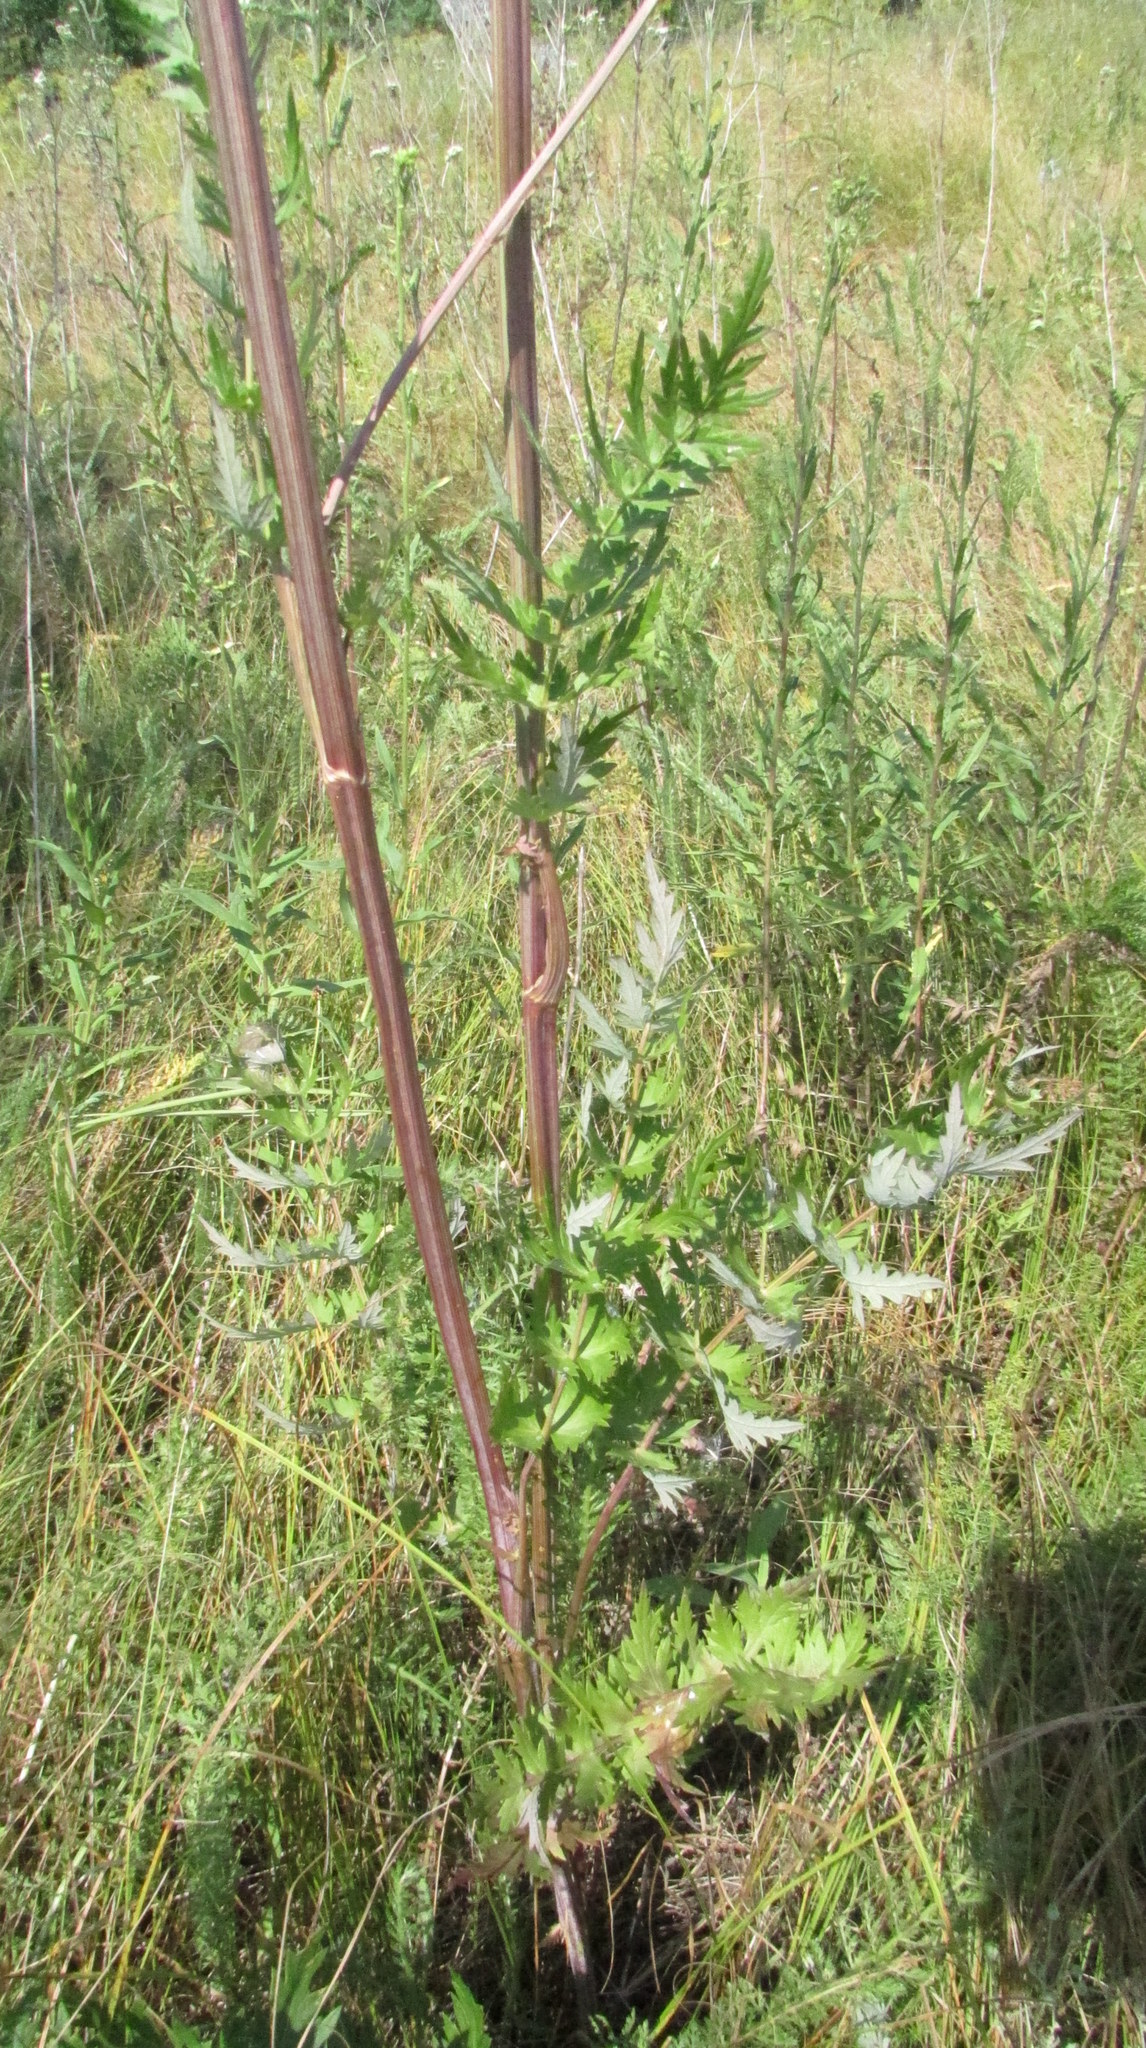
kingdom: Plantae
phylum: Tracheophyta
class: Magnoliopsida
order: Apiales
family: Apiaceae
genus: Seseli
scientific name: Seseli libanotis
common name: Mooncarrot
